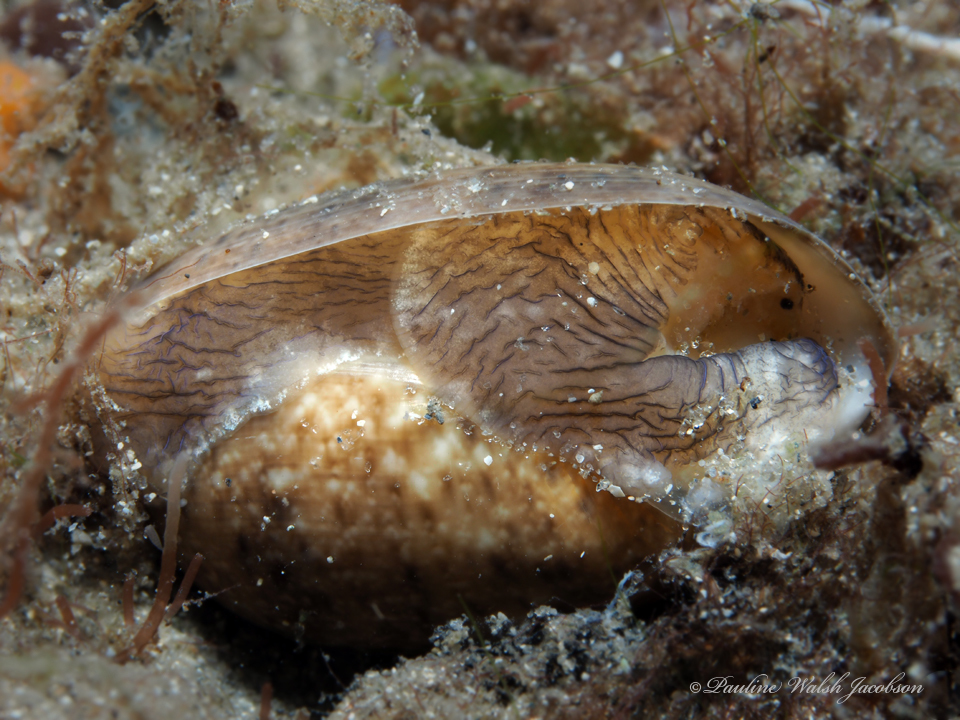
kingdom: Animalia
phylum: Mollusca
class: Gastropoda
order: Cephalaspidea
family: Bullidae
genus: Bulla
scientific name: Bulla occidentalis
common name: Common west-indian bubble
